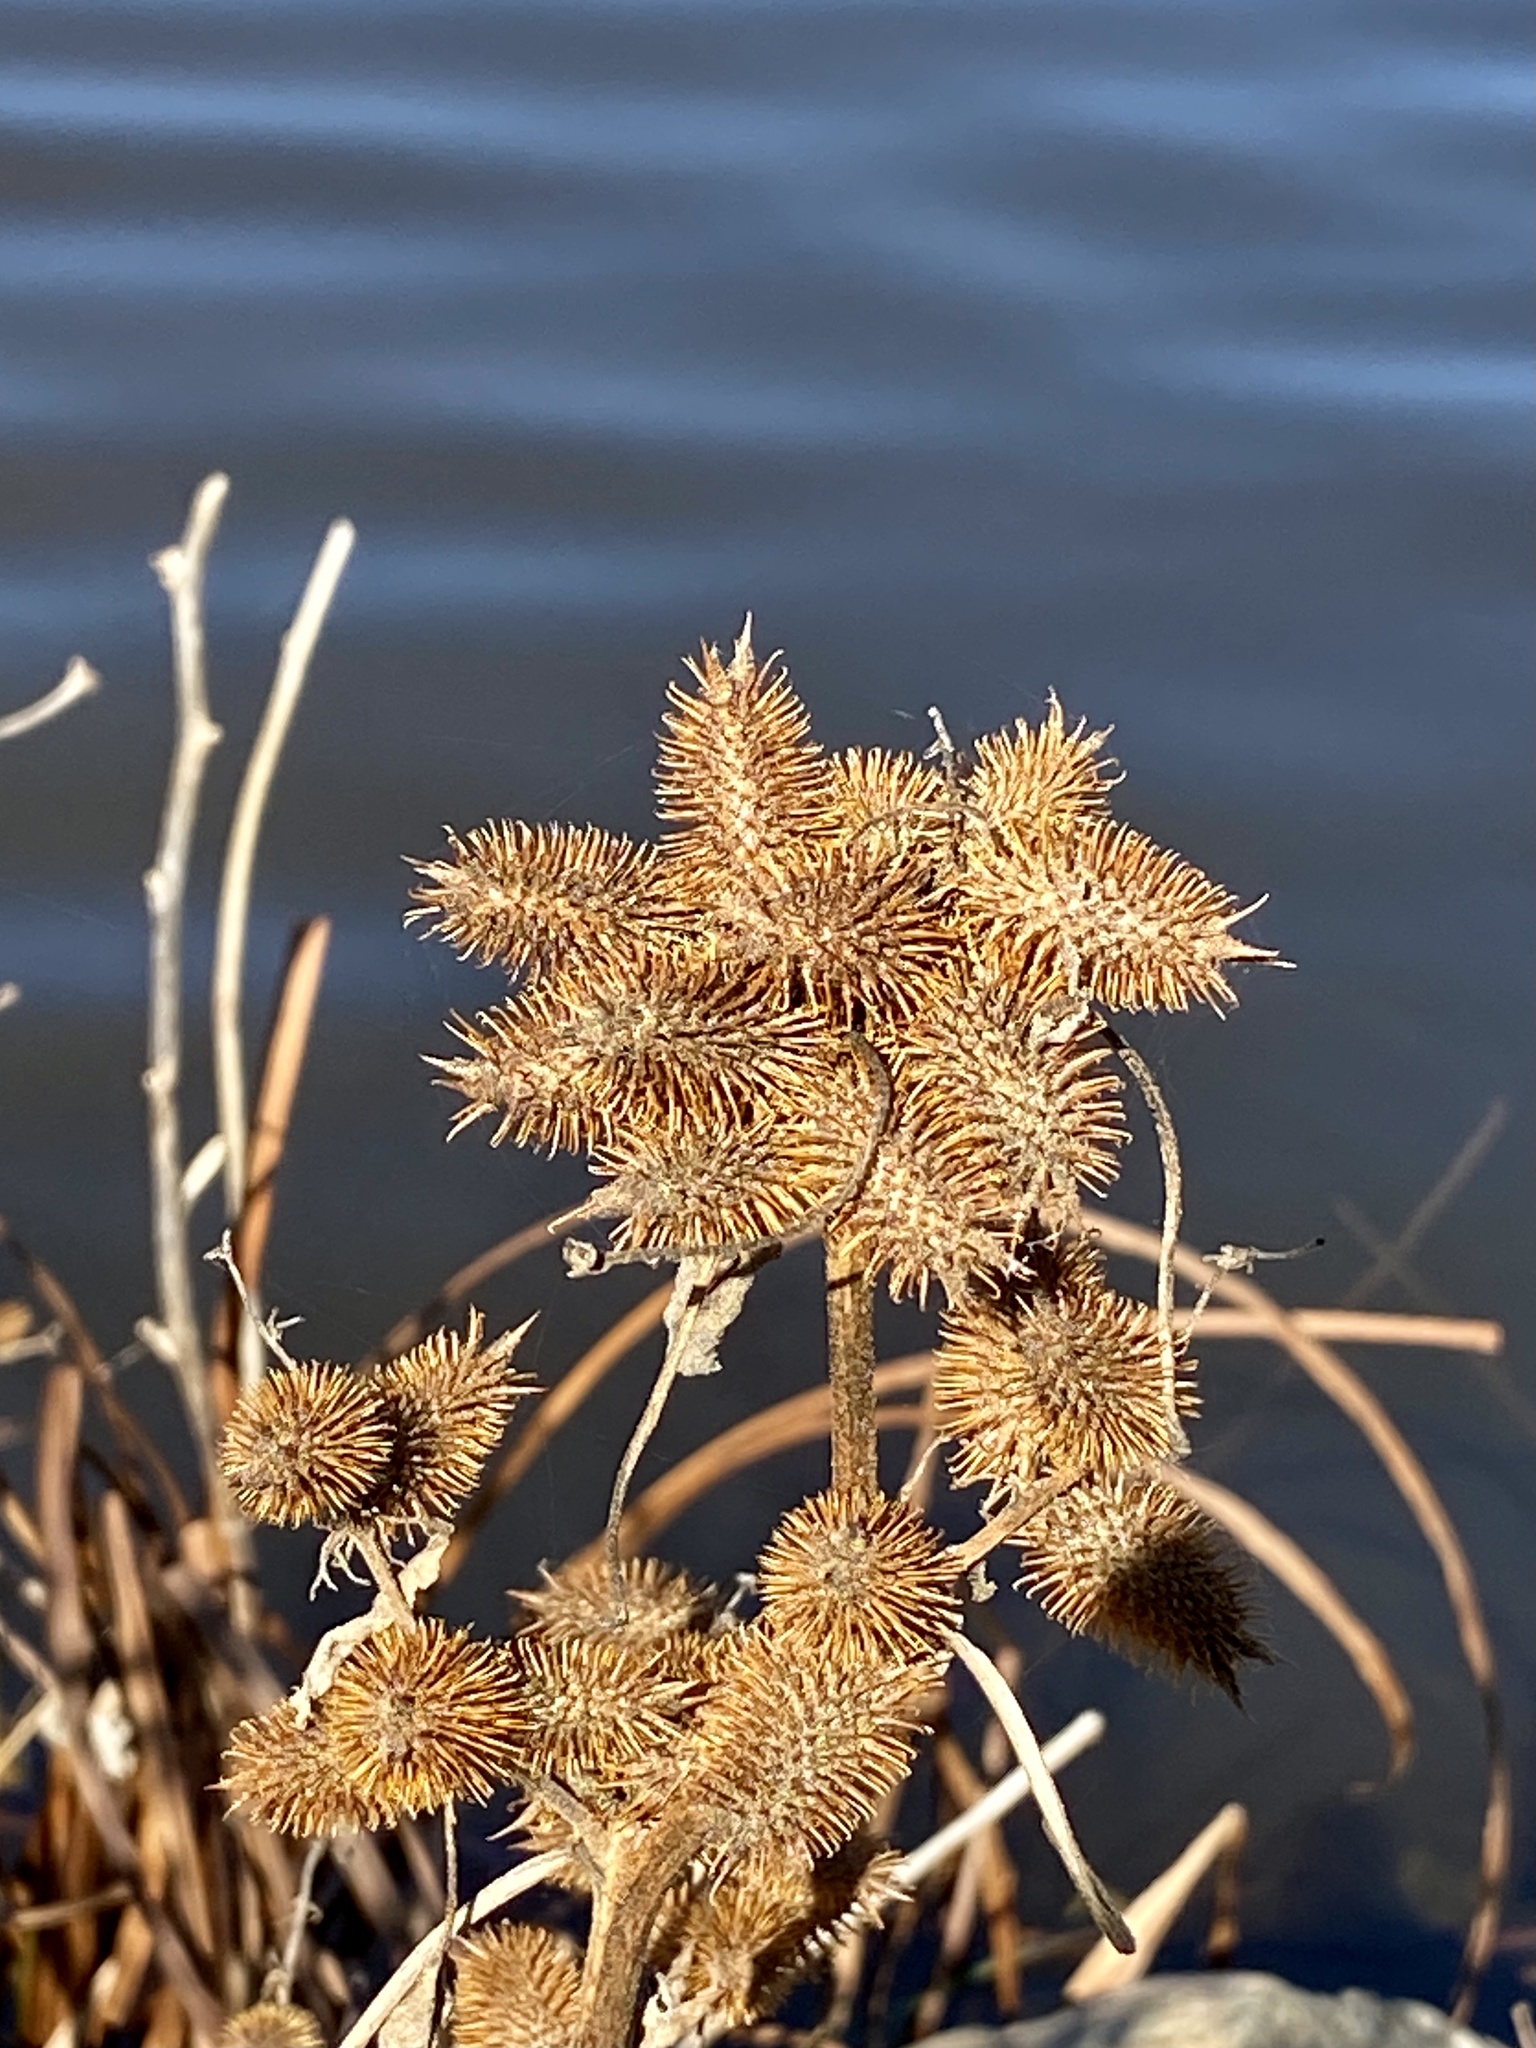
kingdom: Plantae
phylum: Tracheophyta
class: Magnoliopsida
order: Asterales
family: Asteraceae
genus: Xanthium
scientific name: Xanthium strumarium
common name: Rough cocklebur
